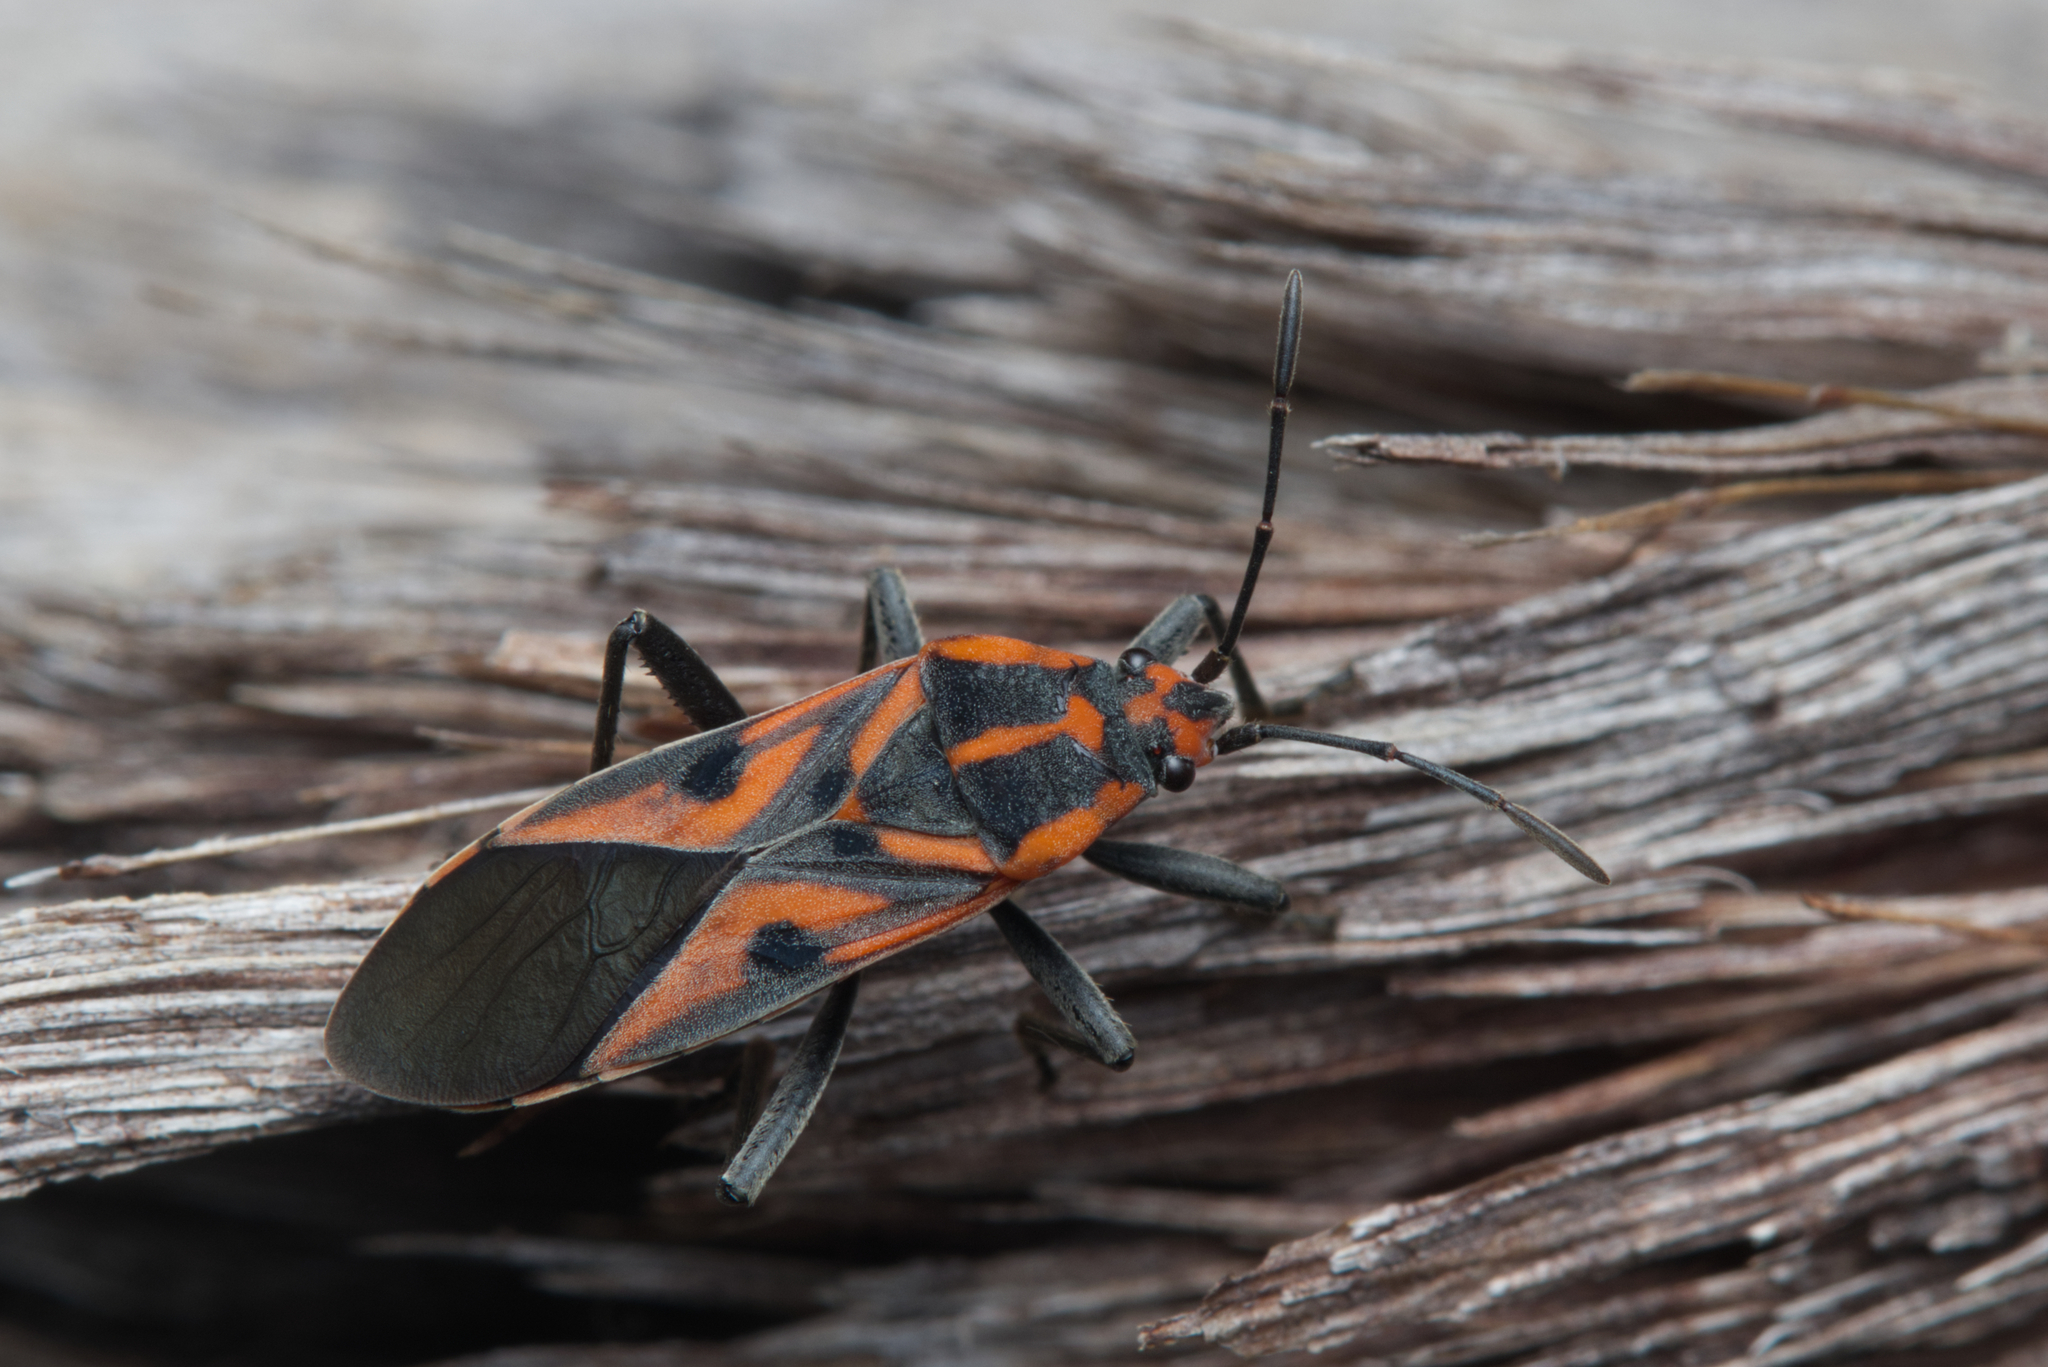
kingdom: Animalia
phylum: Arthropoda
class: Insecta
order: Hemiptera
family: Lygaeidae
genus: Spilostethus
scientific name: Spilostethus hospes
